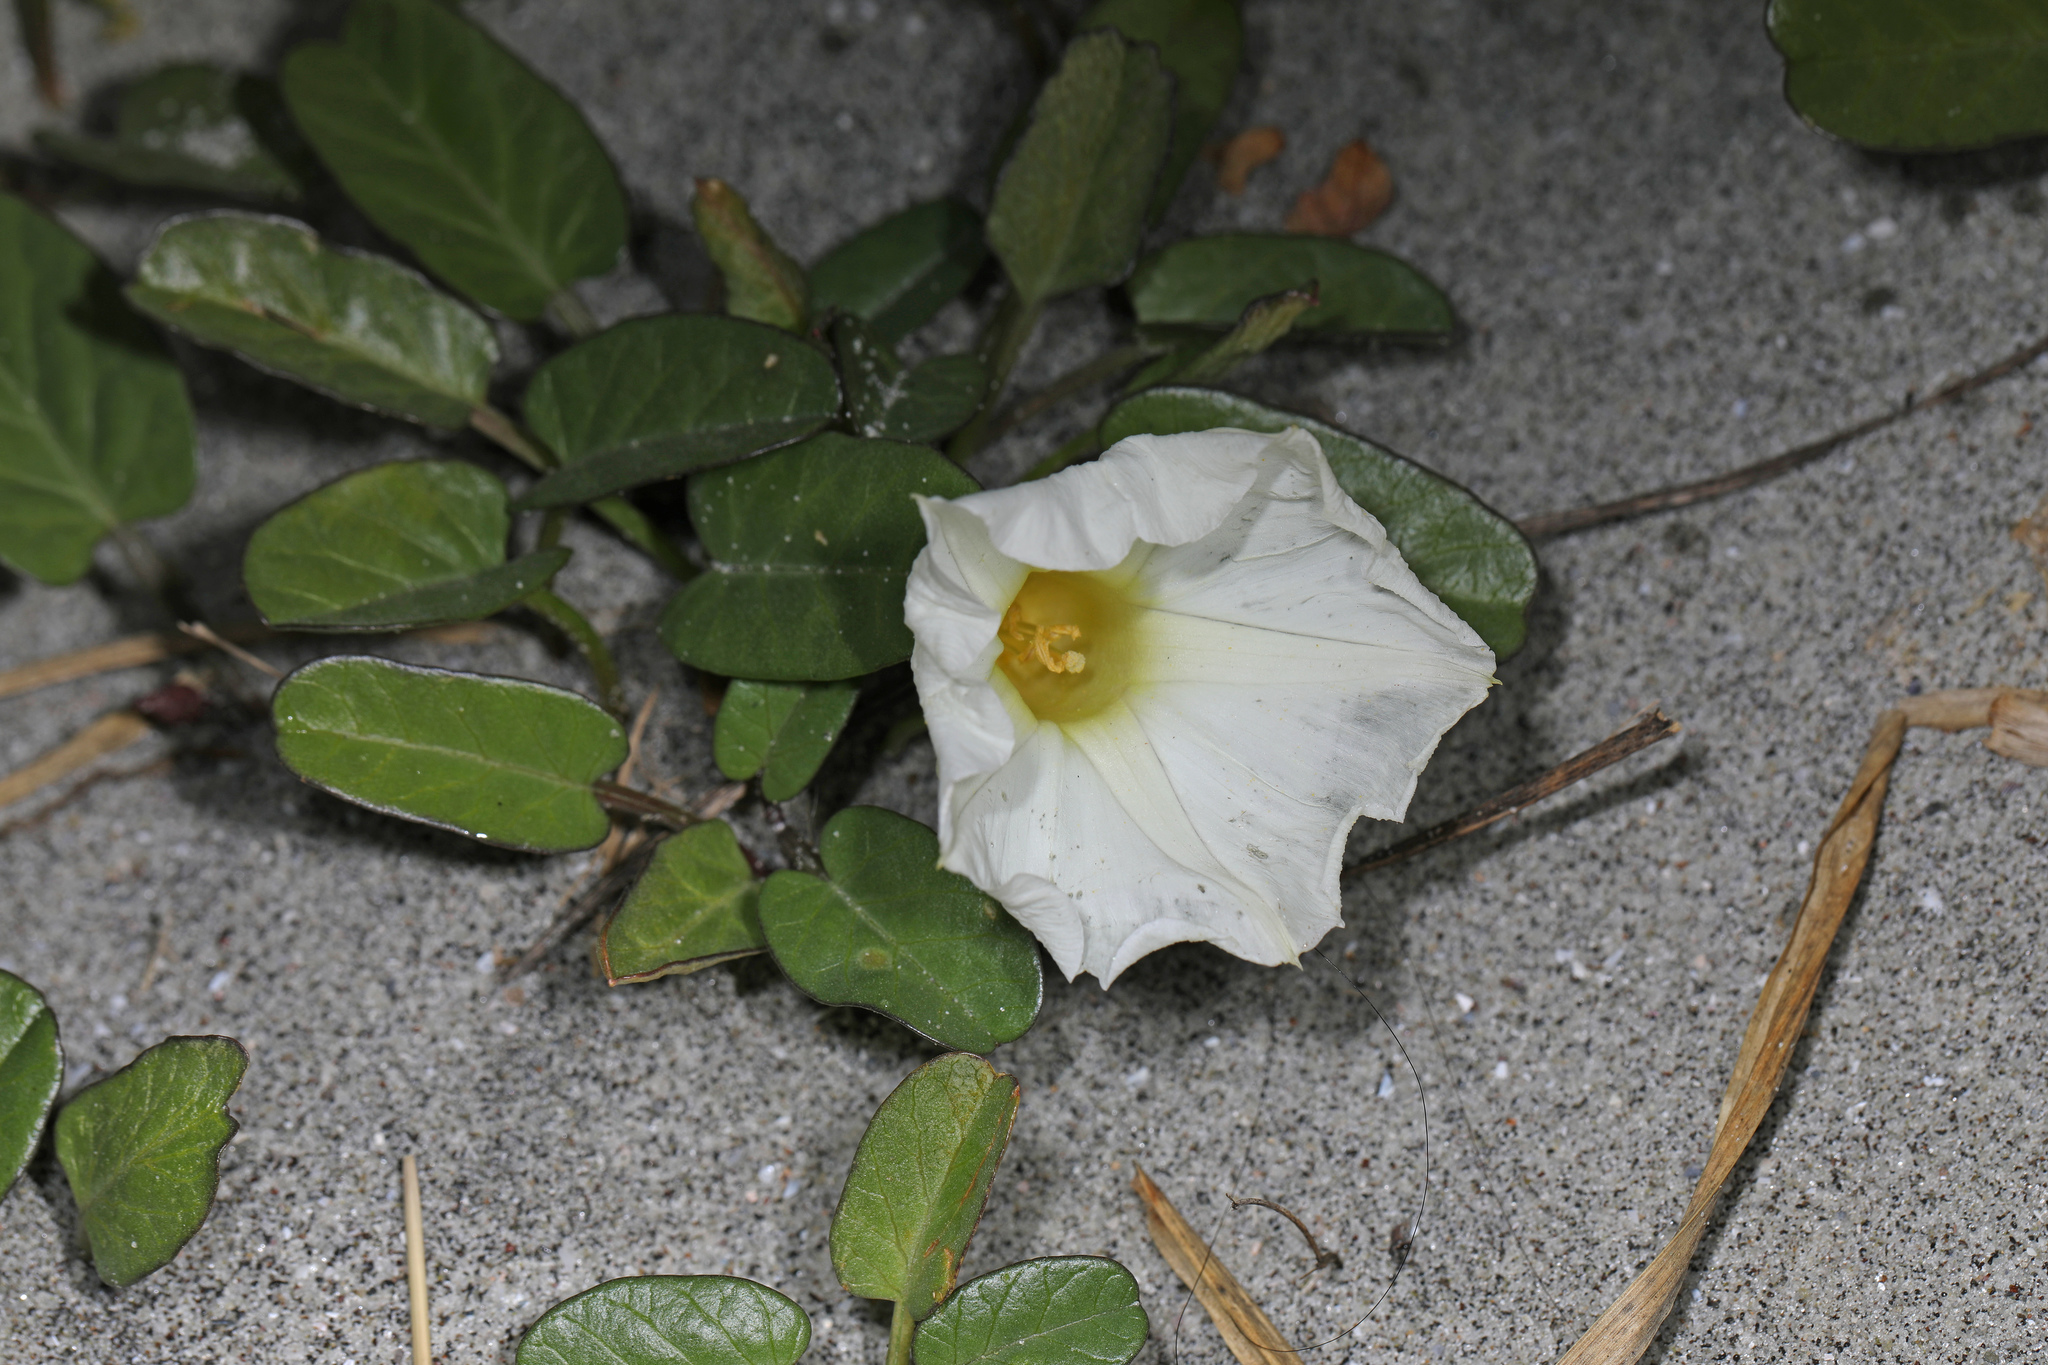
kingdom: Plantae
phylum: Tracheophyta
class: Magnoliopsida
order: Solanales
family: Convolvulaceae
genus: Ipomoea
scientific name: Ipomoea imperati
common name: Fiddle-leaf morning-glory
